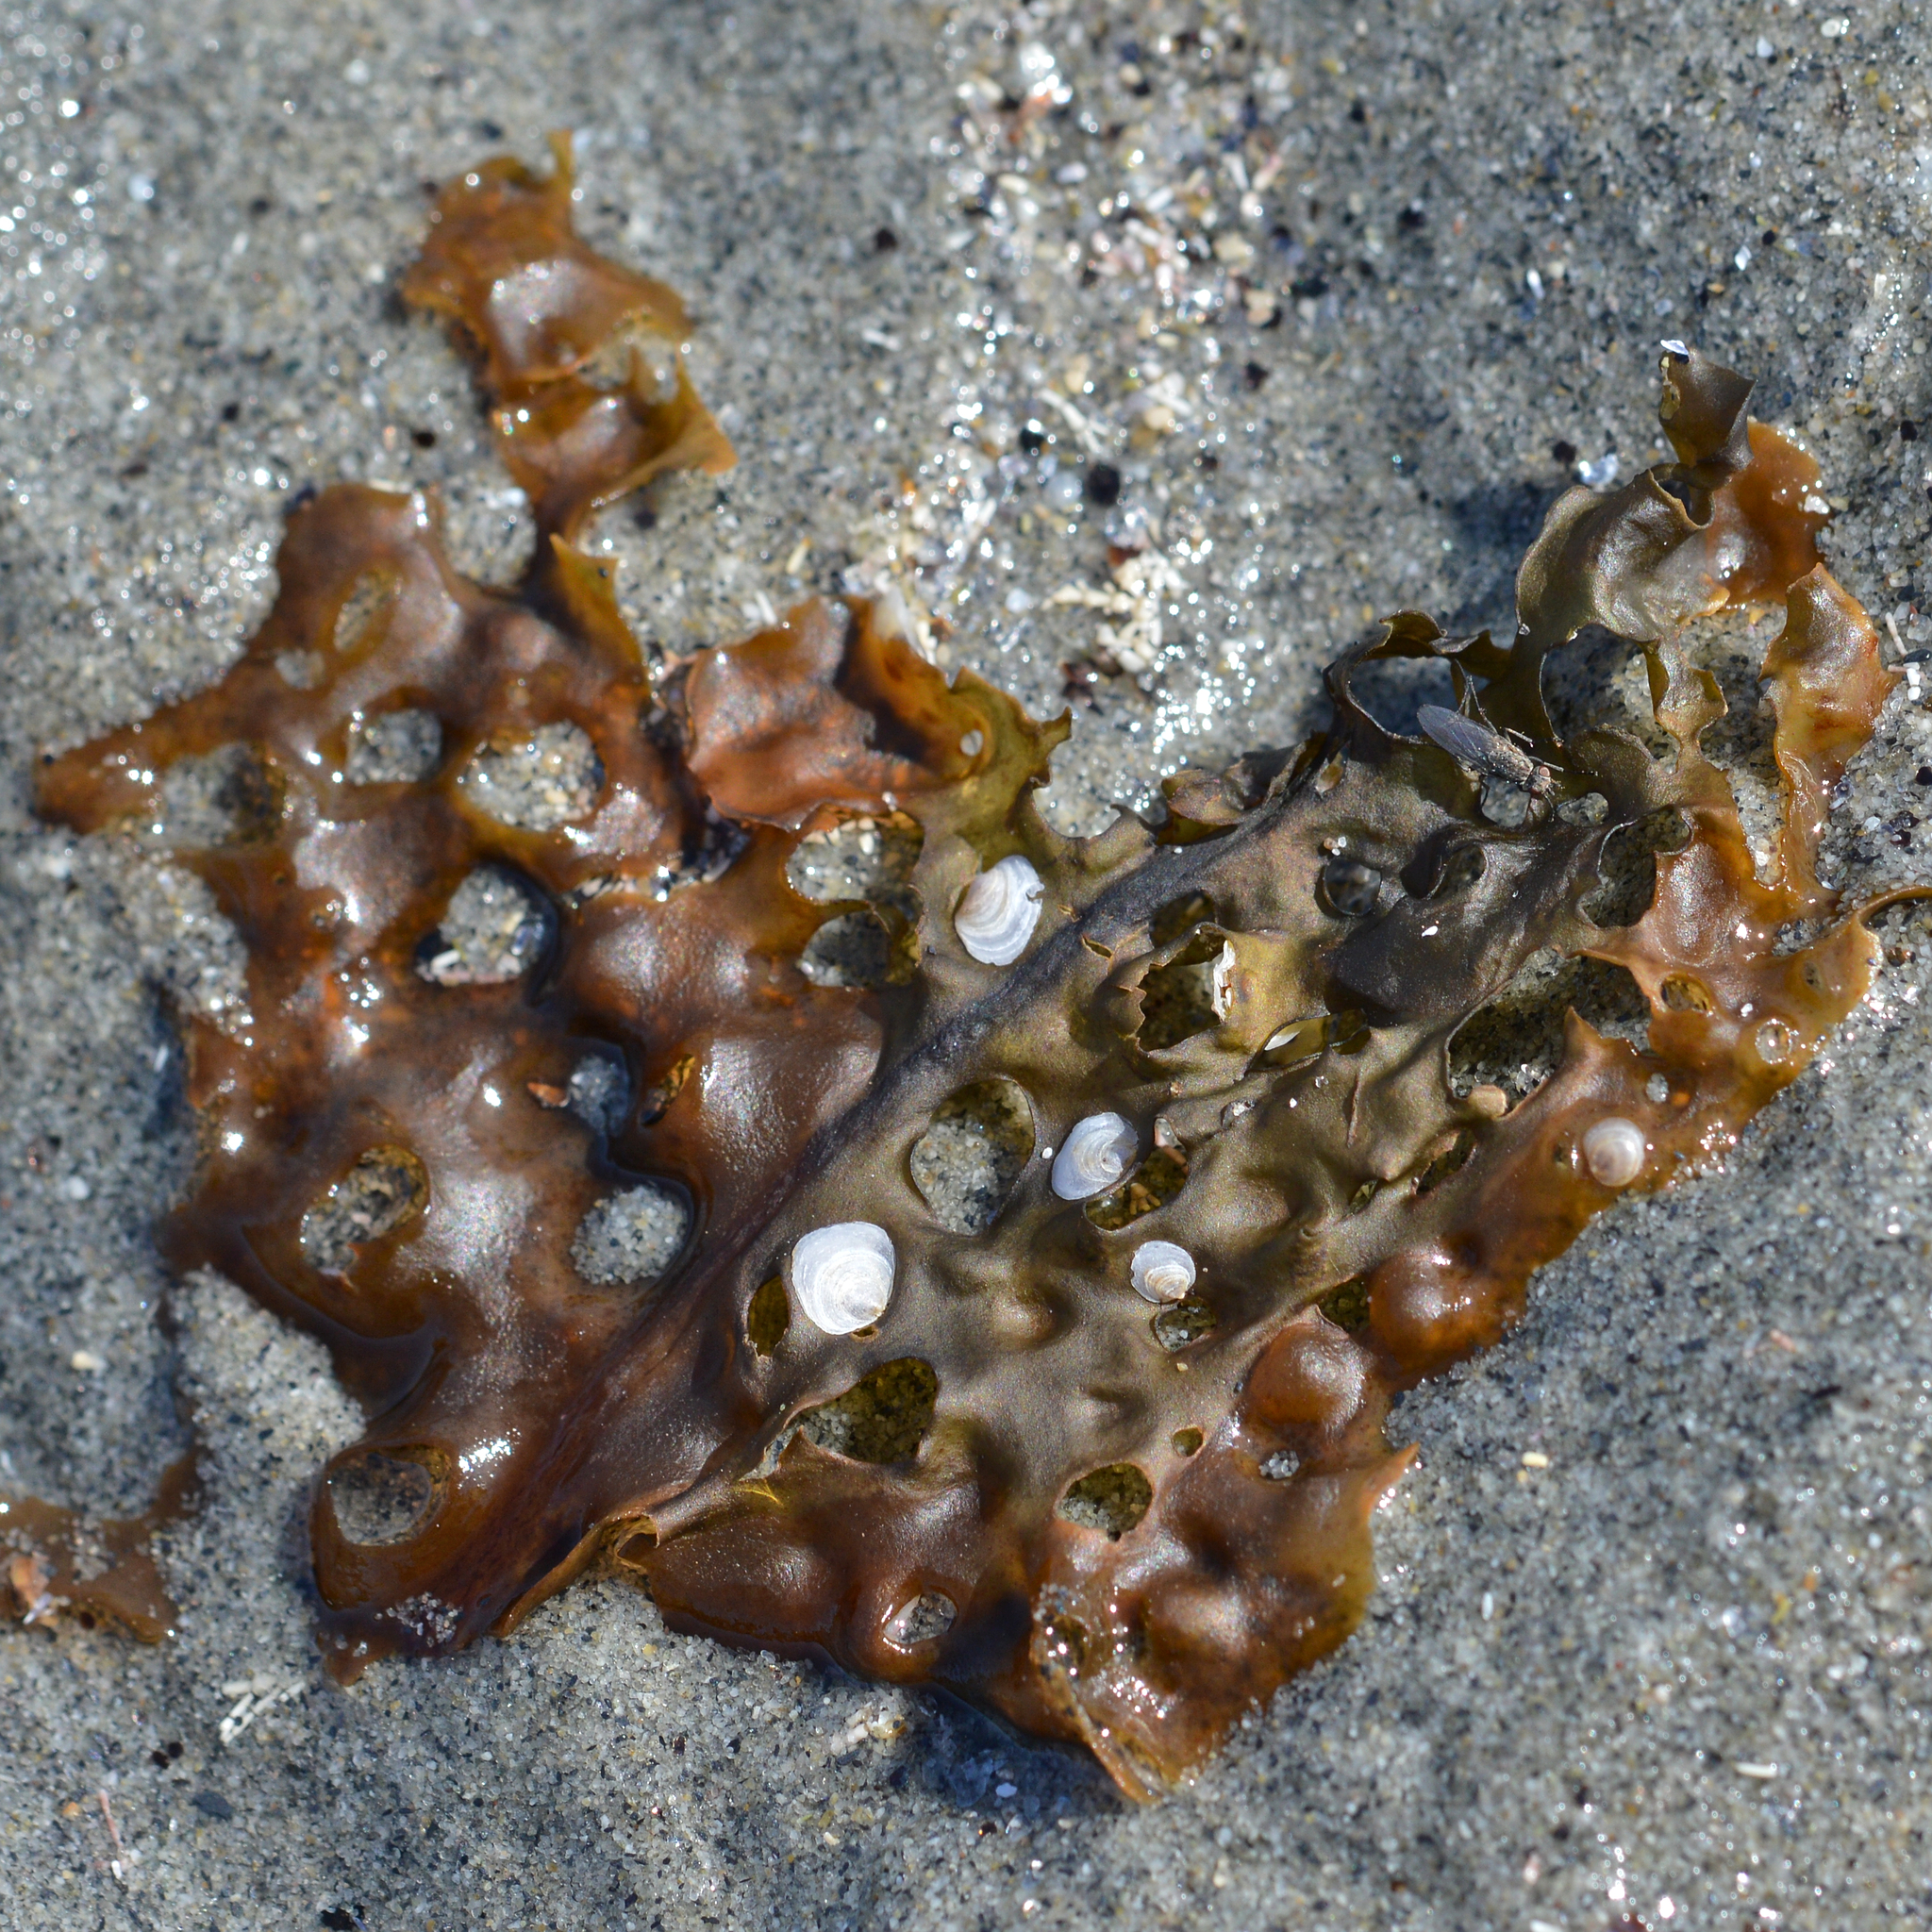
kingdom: Chromista
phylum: Ochrophyta
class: Phaeophyceae
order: Laminariales
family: Costariaceae
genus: Agarum
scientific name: Agarum clathratum
